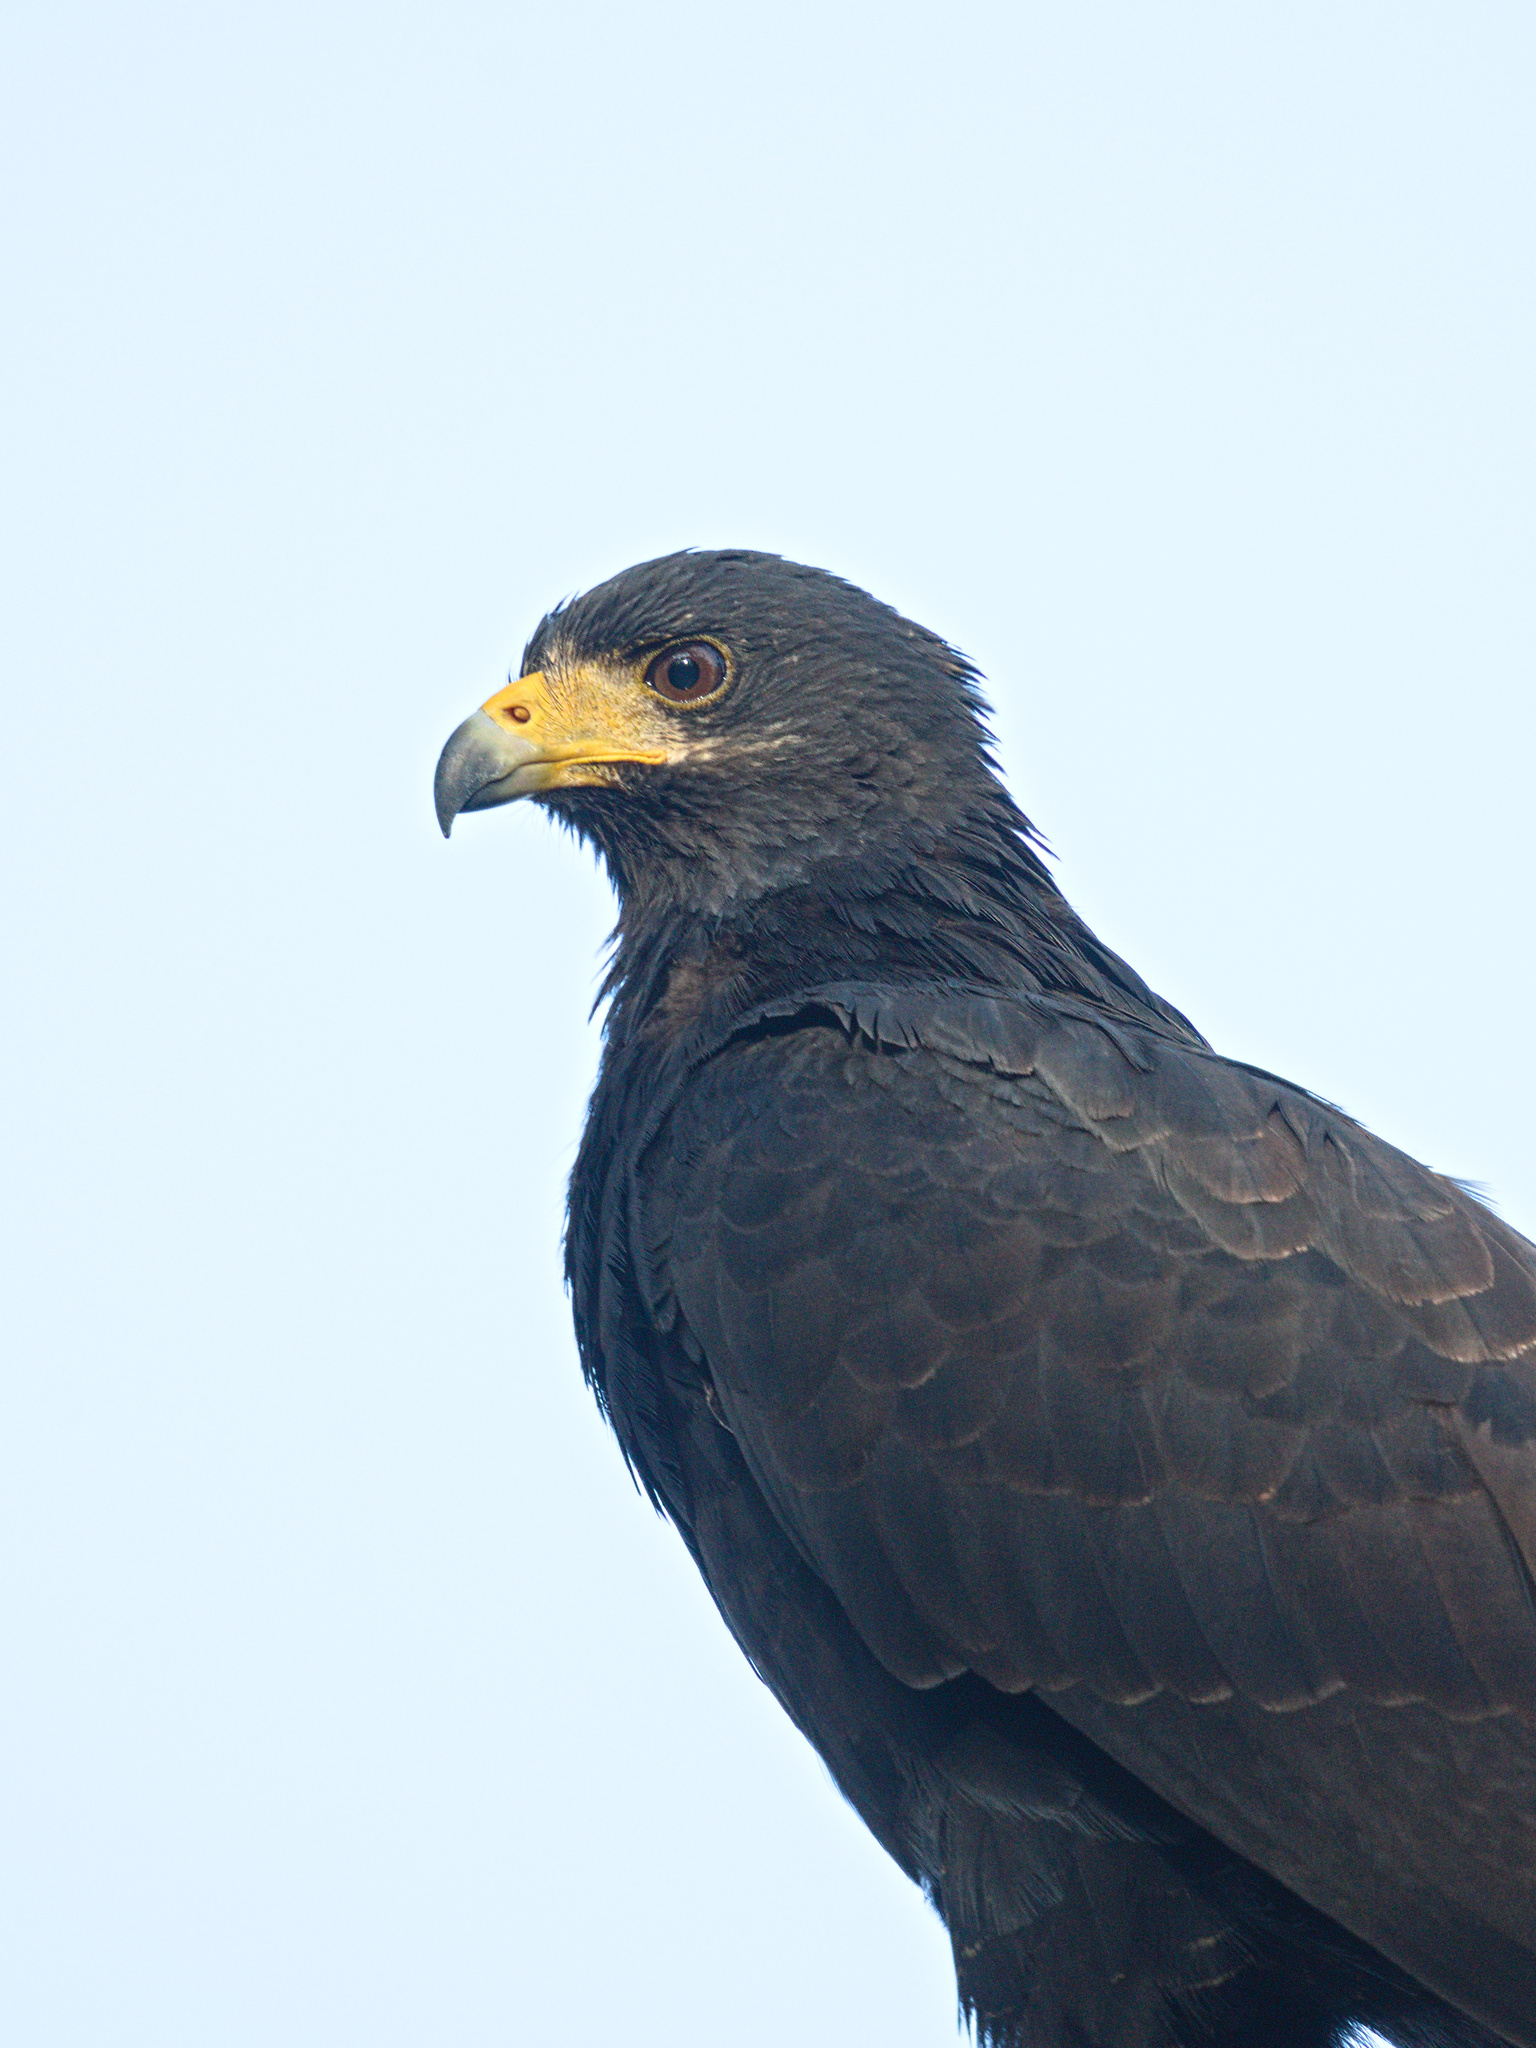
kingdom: Animalia
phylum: Chordata
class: Aves
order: Accipitriformes
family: Accipitridae
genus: Buteogallus
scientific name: Buteogallus anthracinus
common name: Common black hawk
